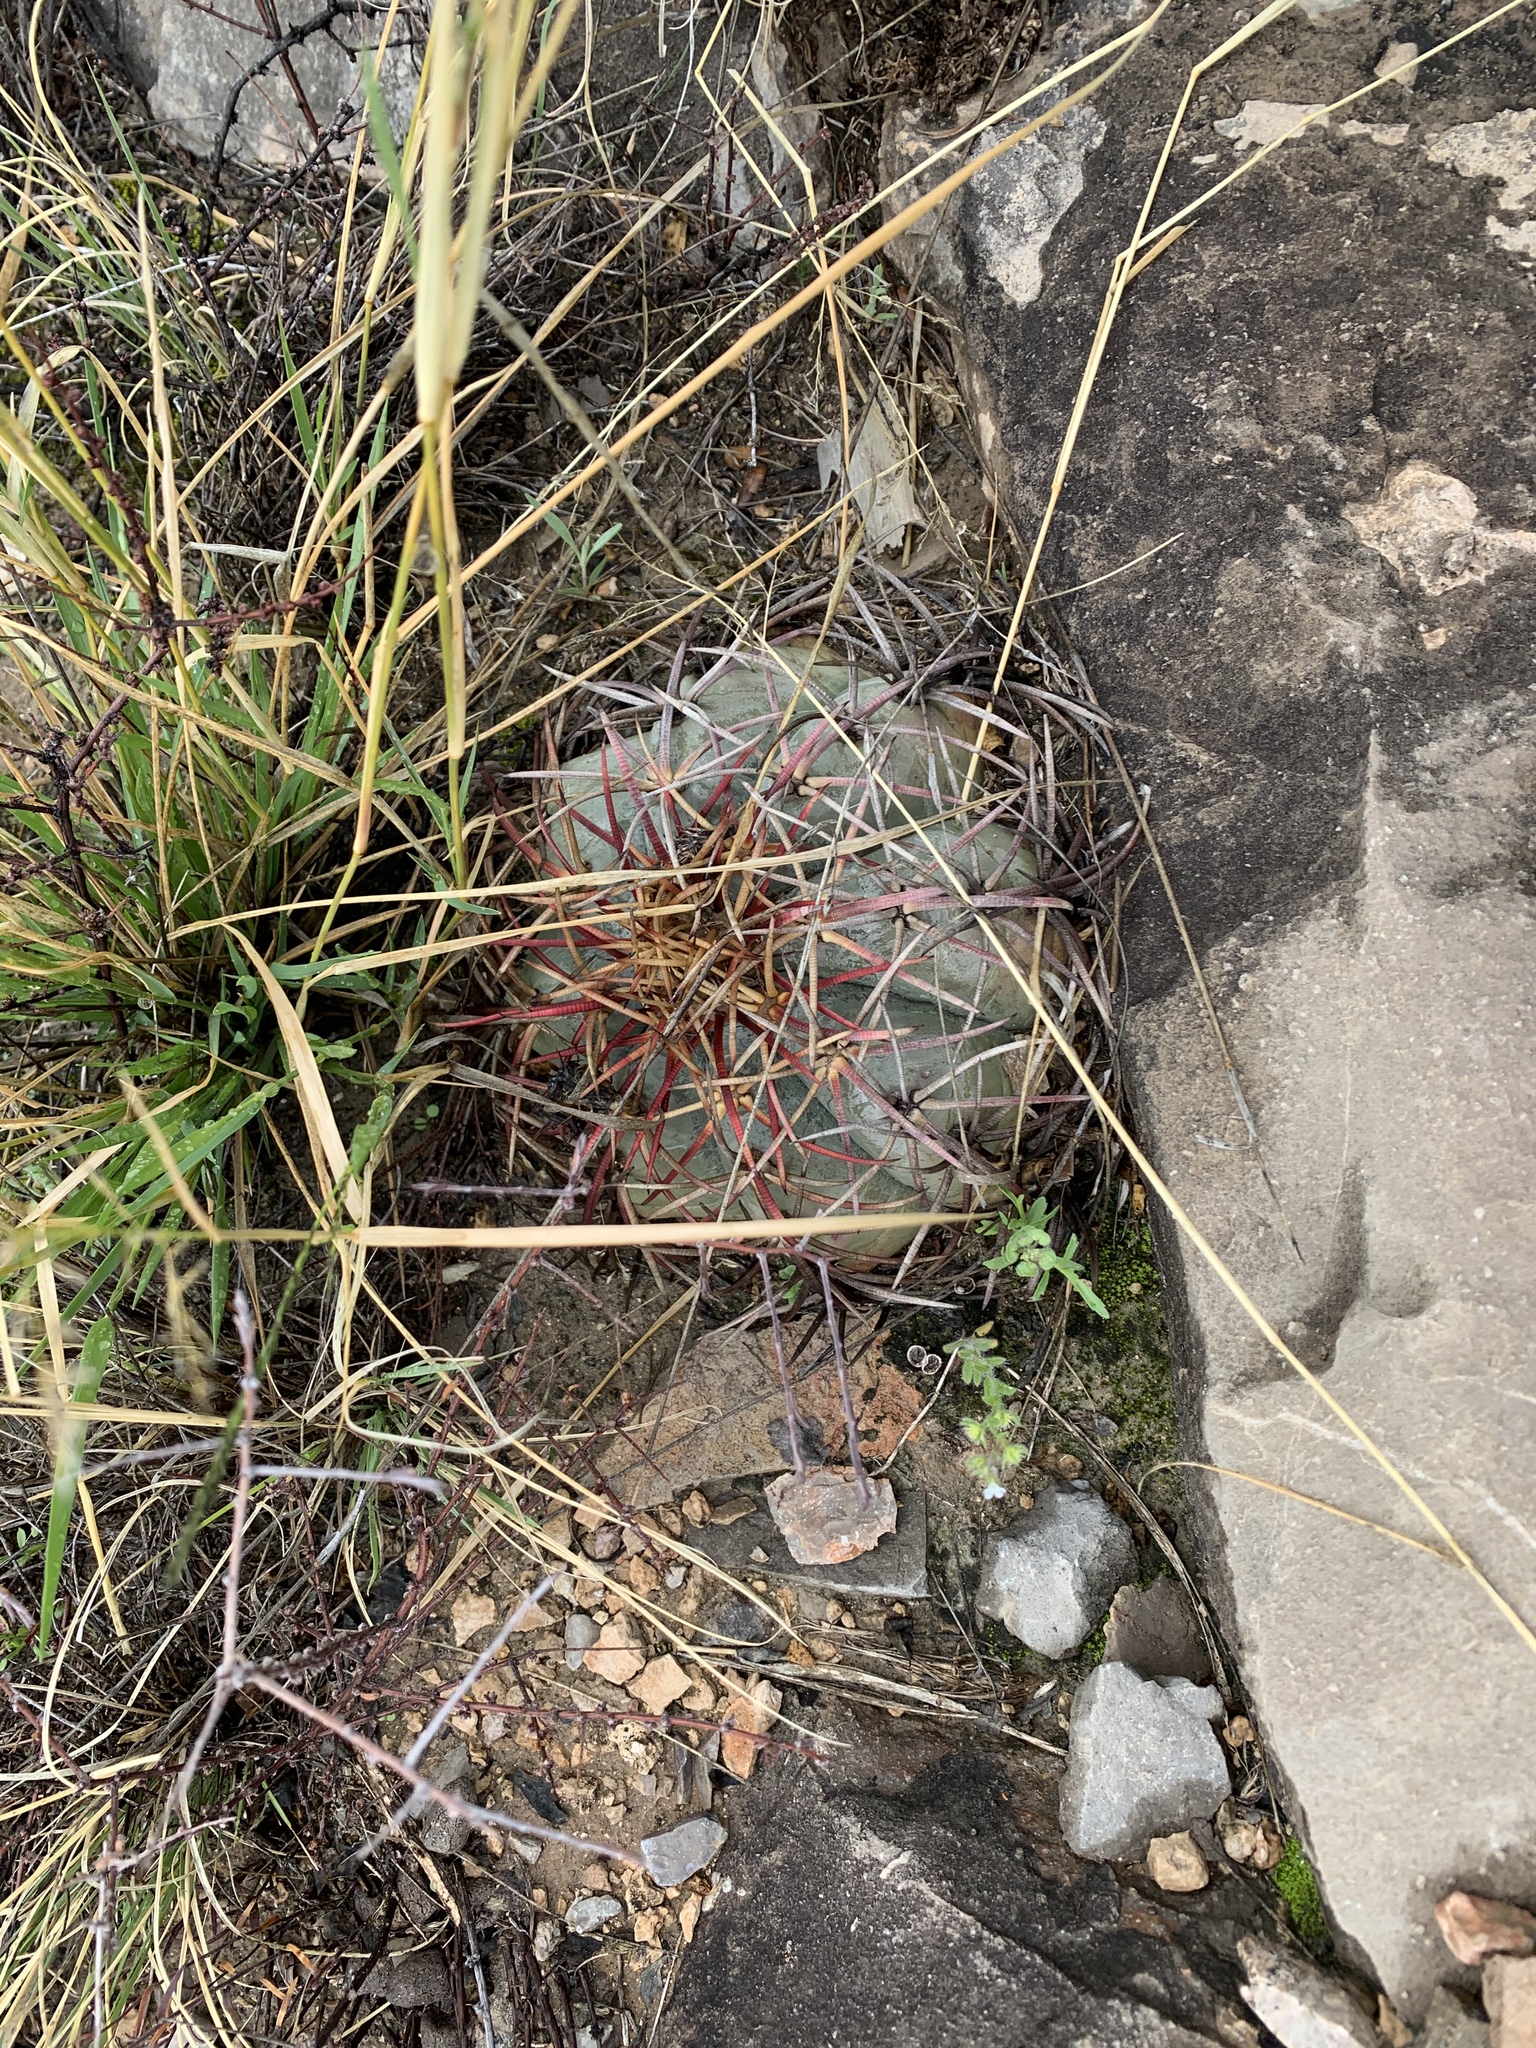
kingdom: Plantae
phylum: Tracheophyta
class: Magnoliopsida
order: Caryophyllales
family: Cactaceae
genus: Echinocactus
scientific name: Echinocactus horizonthalonius
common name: Devilshead
